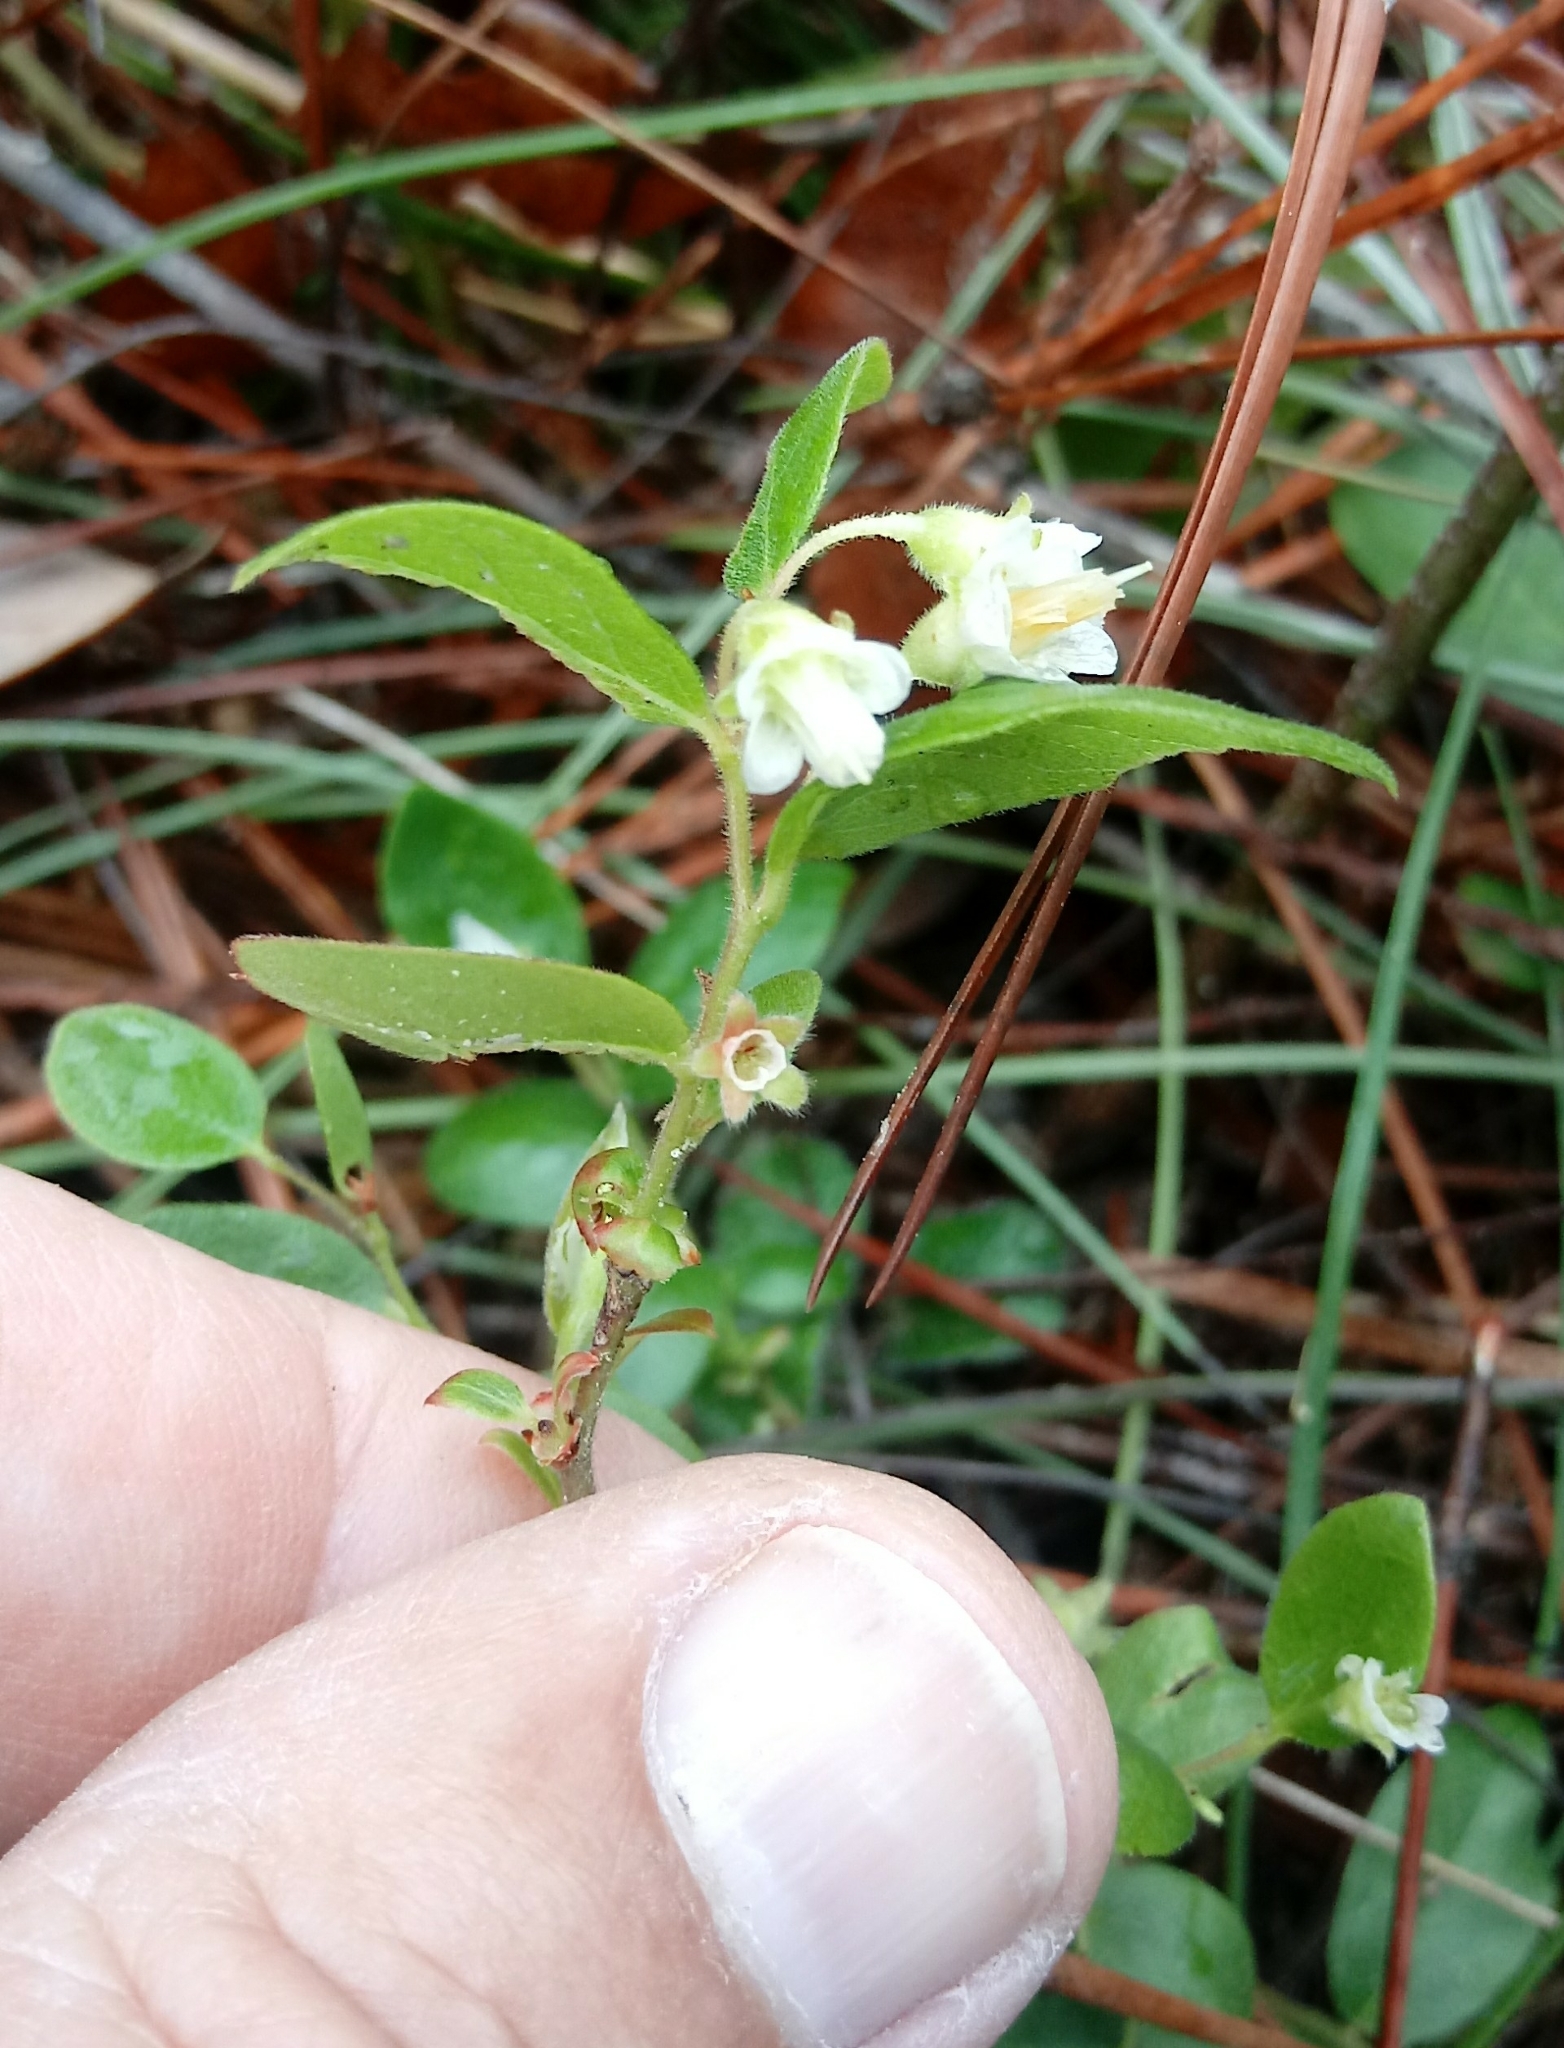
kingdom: Plantae
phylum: Tracheophyta
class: Magnoliopsida
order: Ericales
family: Ericaceae
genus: Vaccinium
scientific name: Vaccinium stamineum
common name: Deerberry
